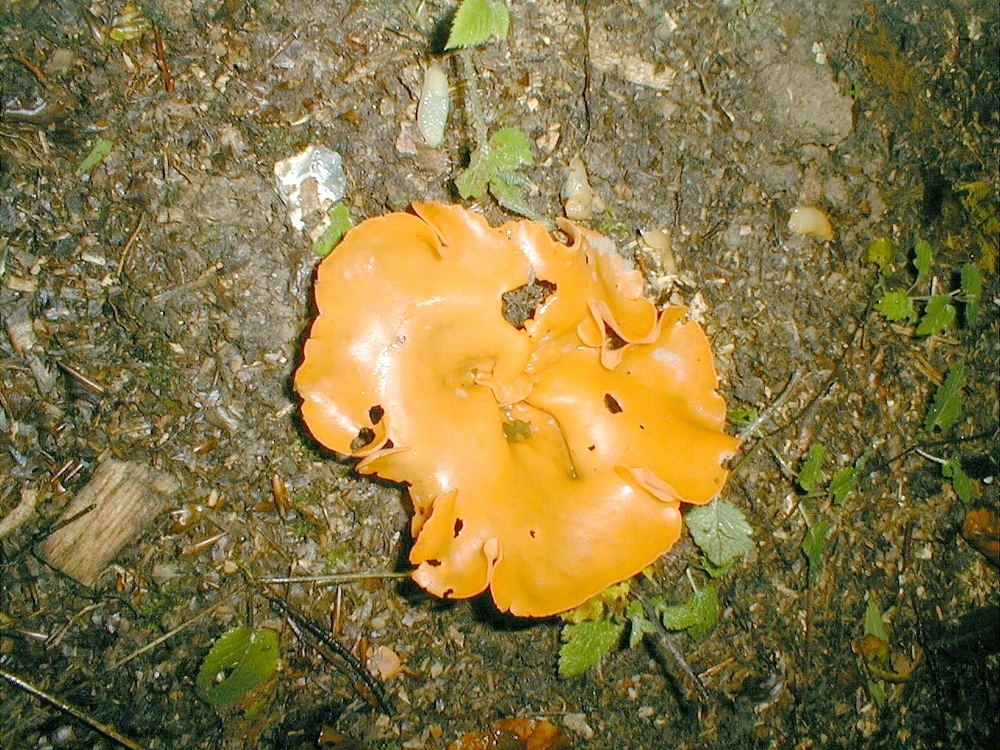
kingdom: Fungi
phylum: Ascomycota
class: Pezizomycetes
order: Pezizales
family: Pyronemataceae
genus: Aleuria
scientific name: Aleuria aurantia
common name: Orange peel fungus
